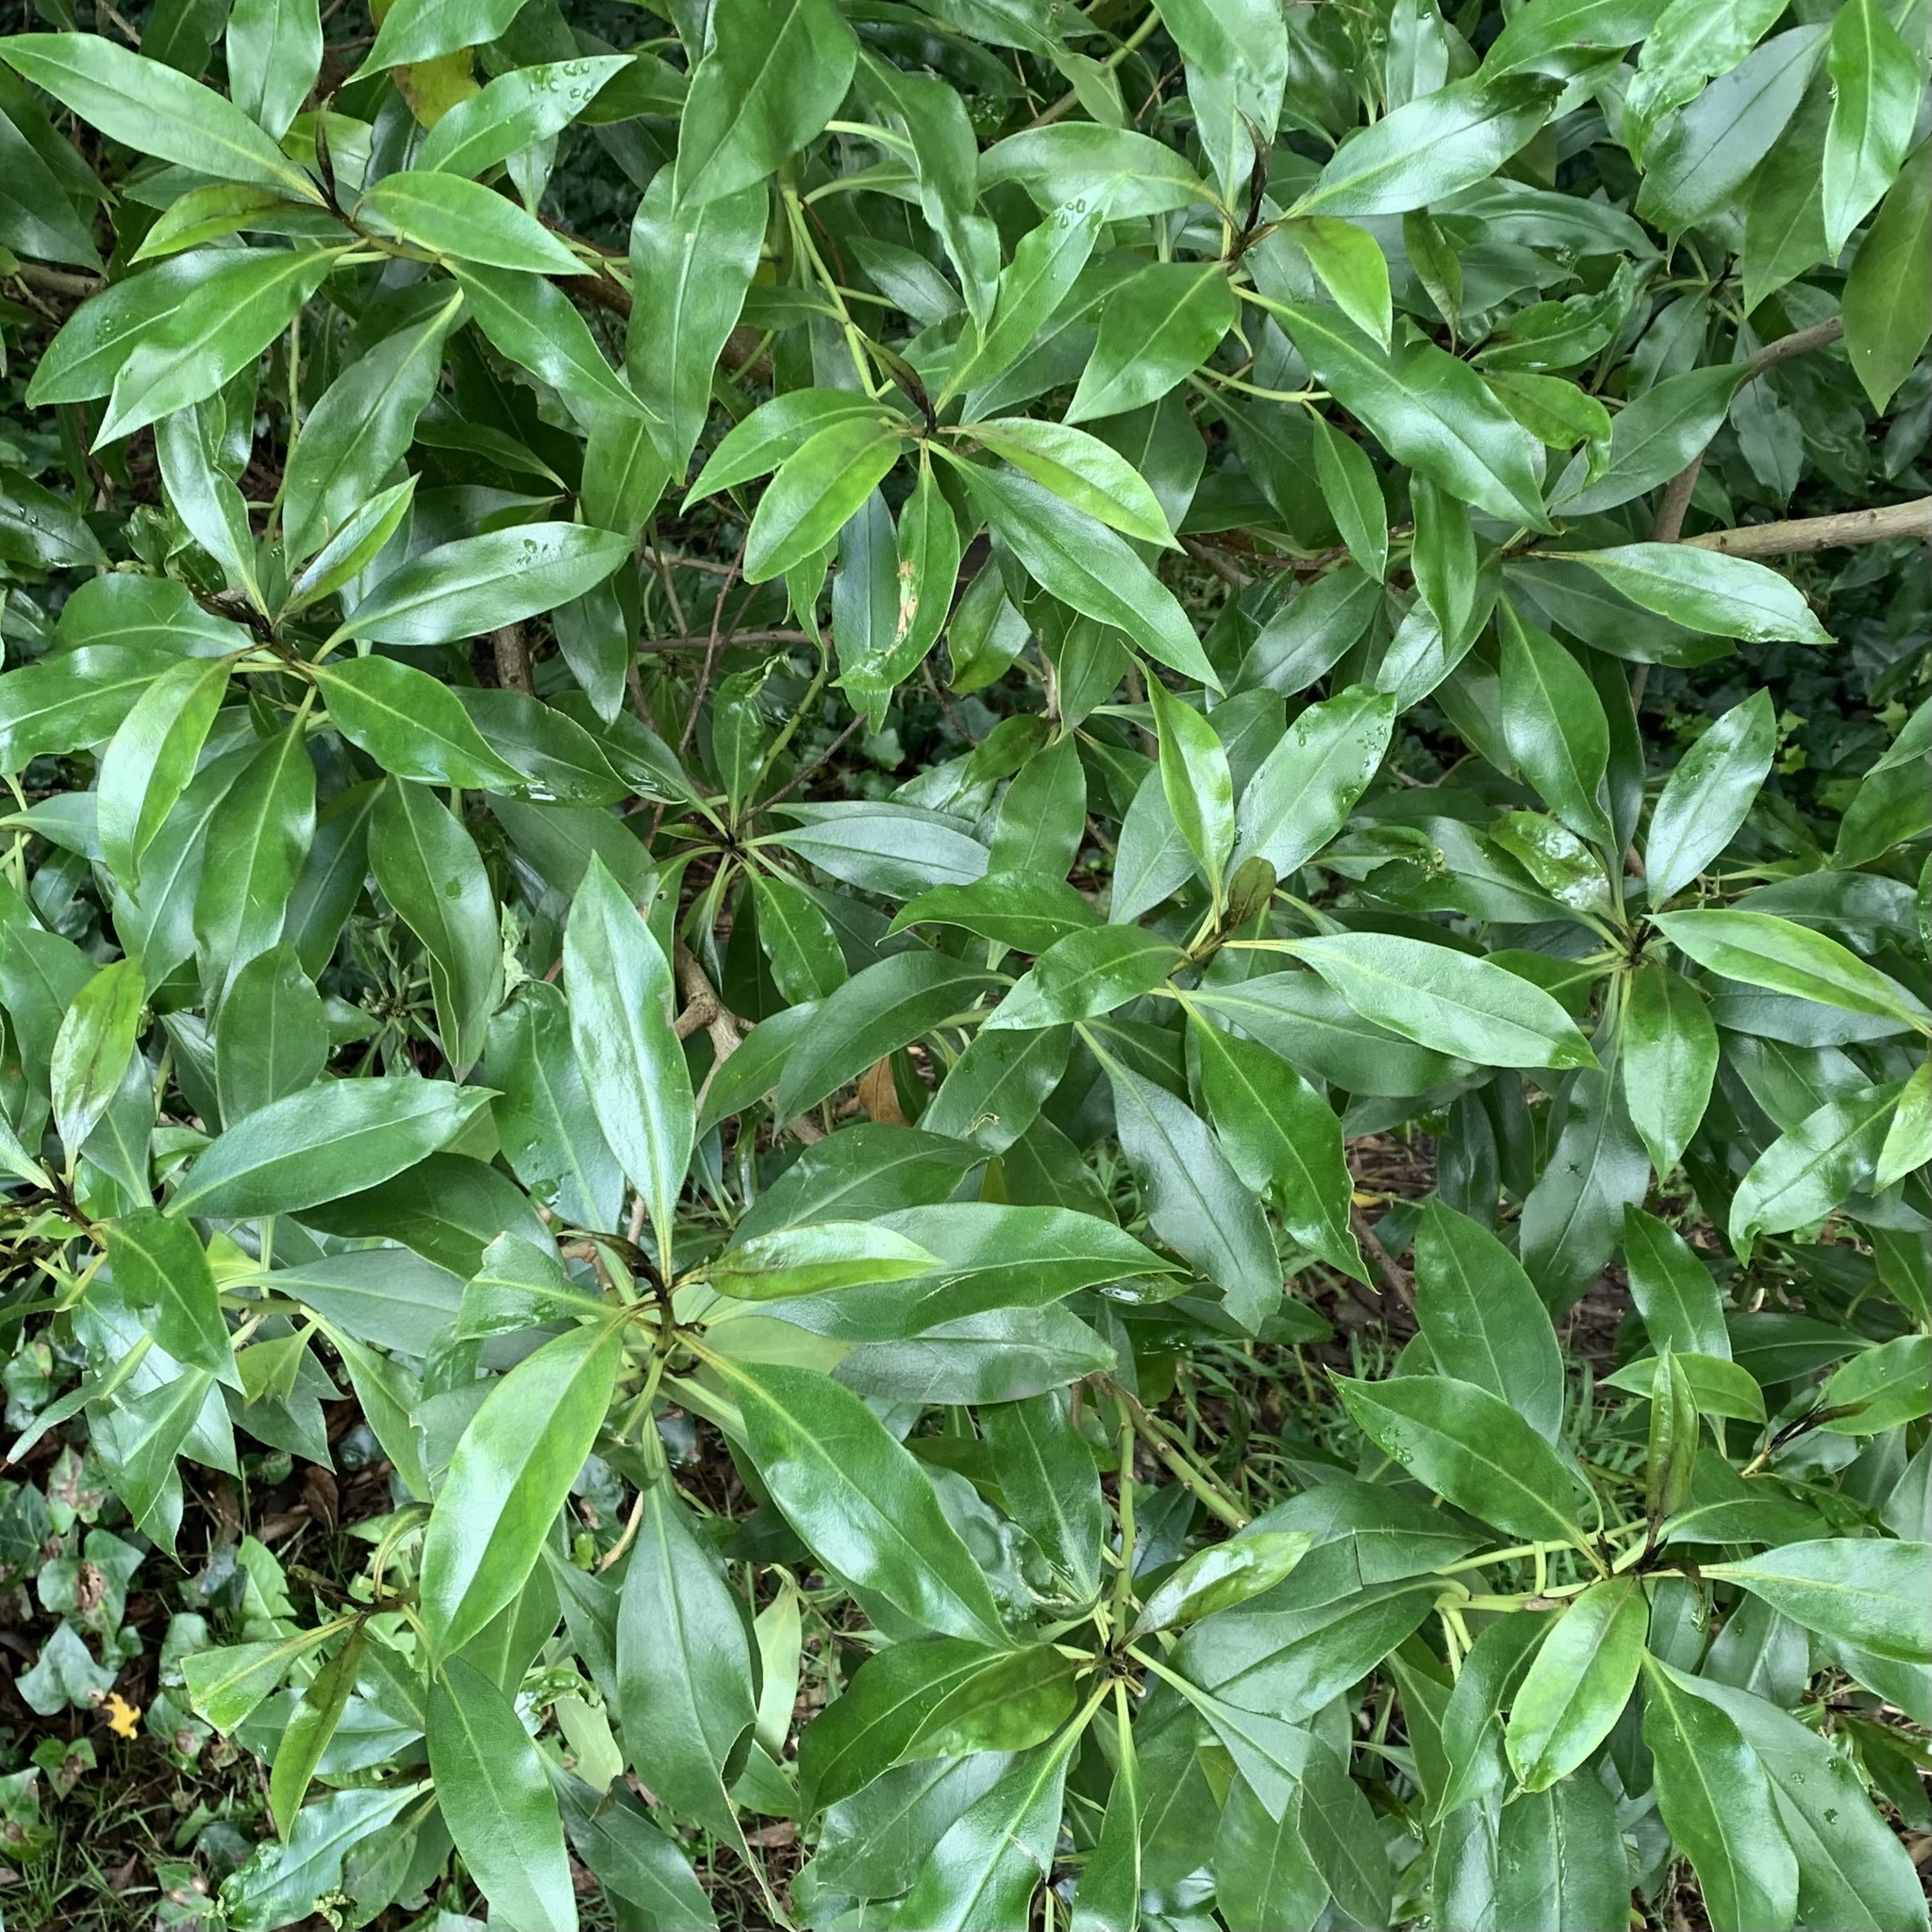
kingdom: Plantae
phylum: Tracheophyta
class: Magnoliopsida
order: Lamiales
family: Scrophulariaceae
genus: Myoporum
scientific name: Myoporum laetum
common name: Ngaio tree
